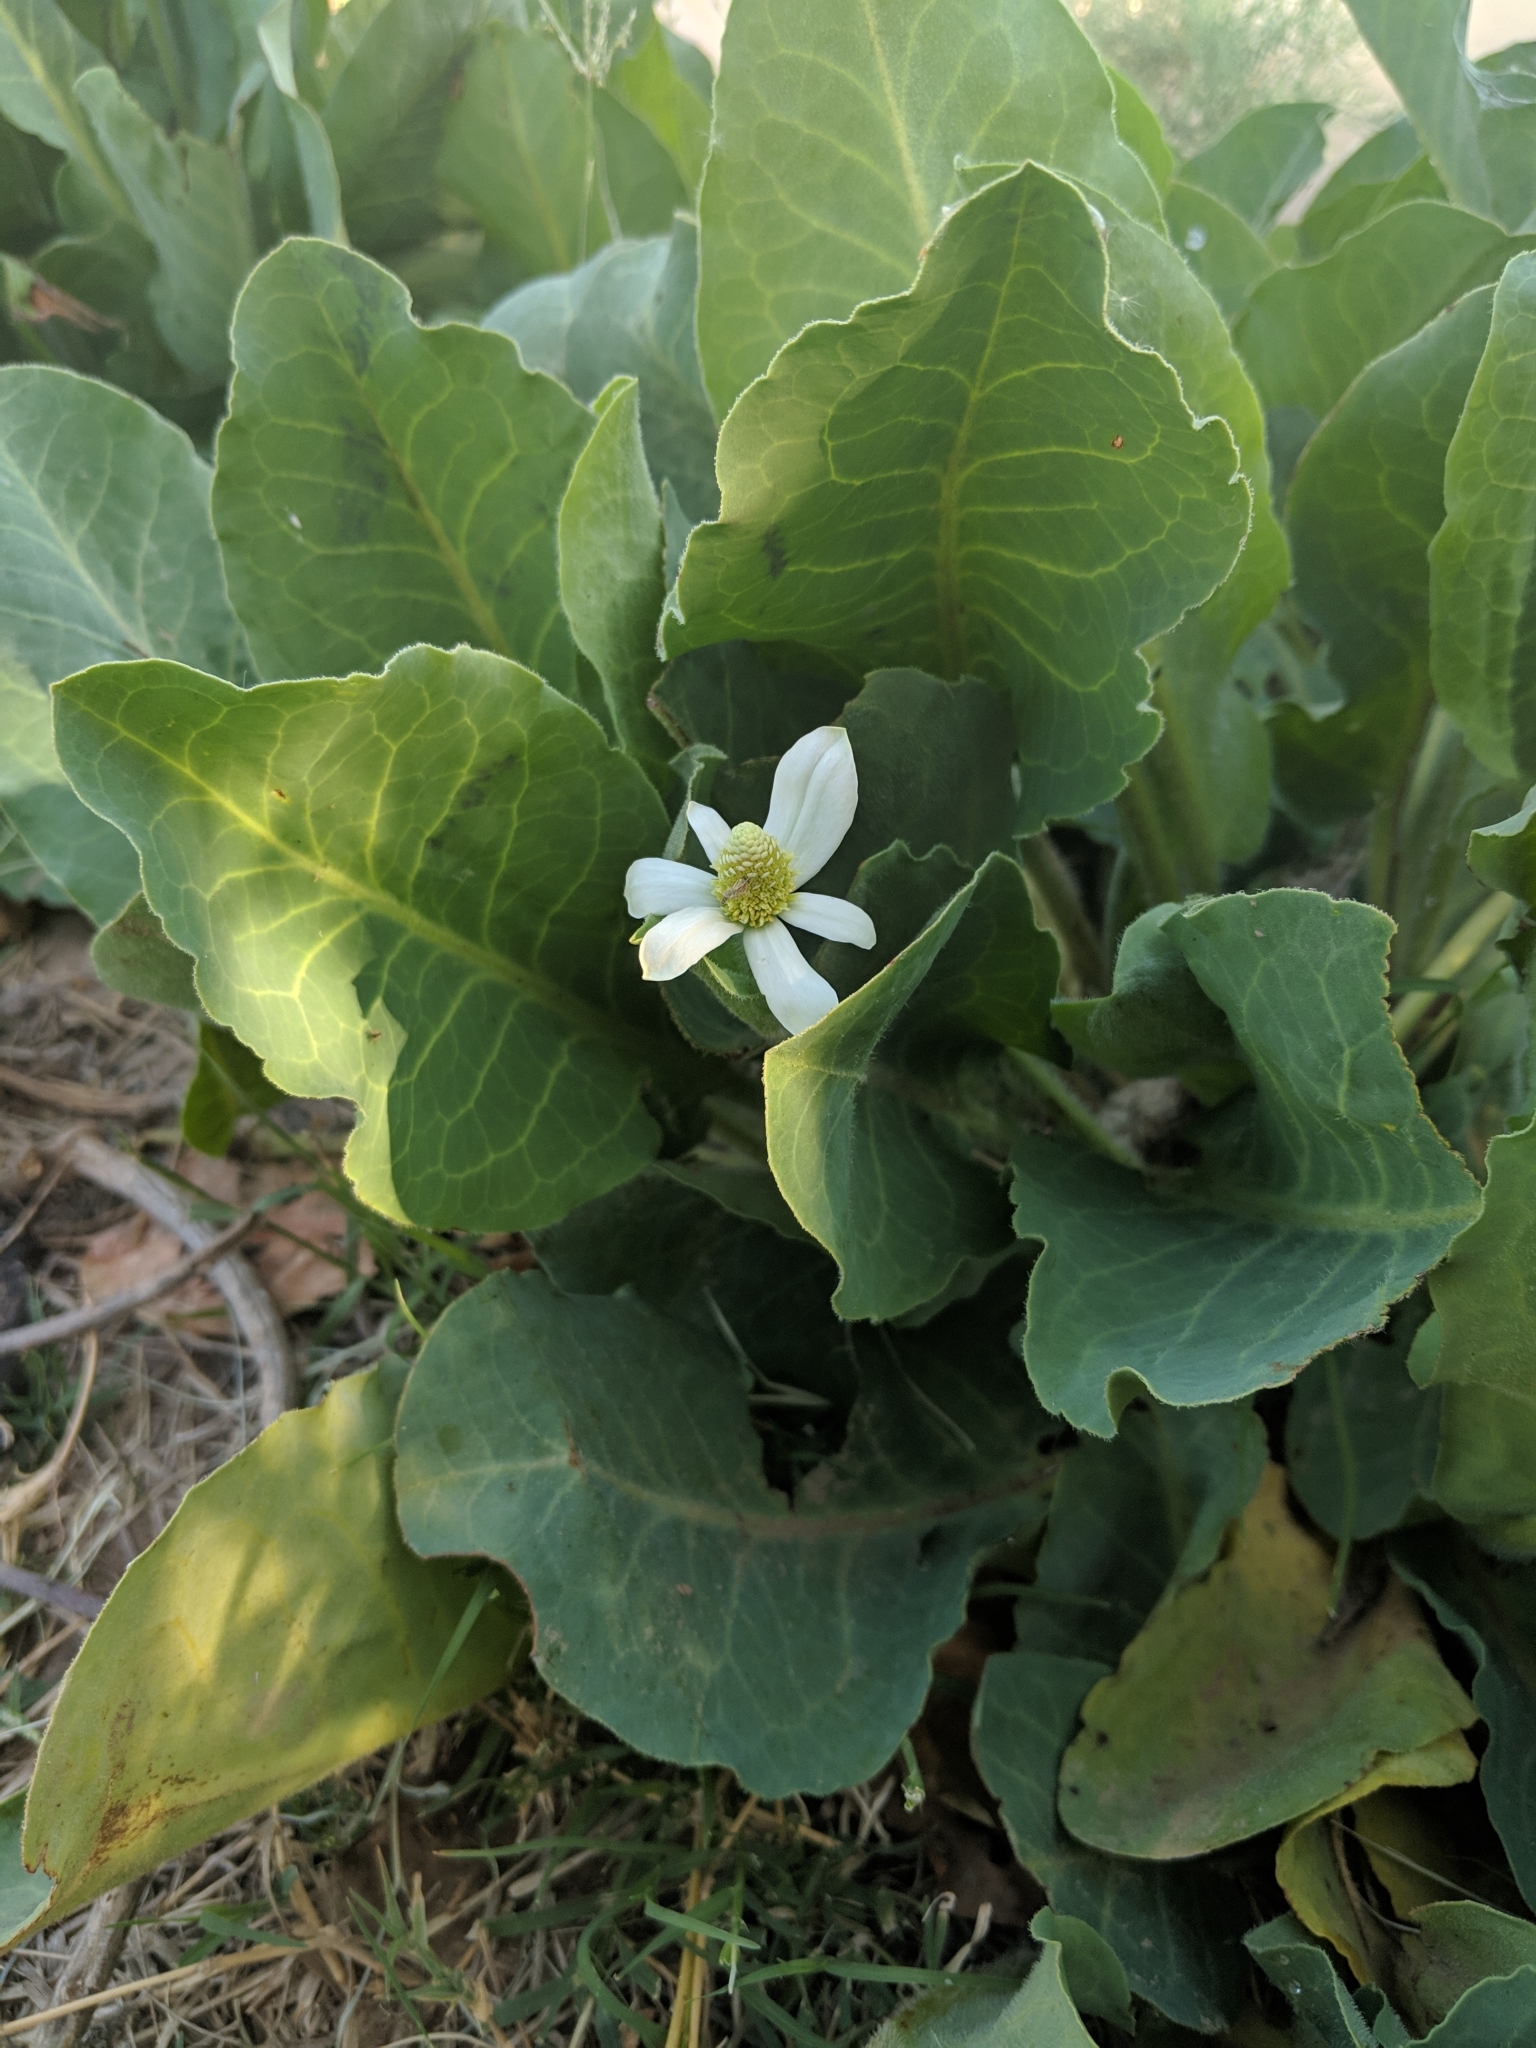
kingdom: Plantae
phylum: Tracheophyta
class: Magnoliopsida
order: Piperales
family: Saururaceae
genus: Anemopsis
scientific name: Anemopsis californica
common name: Apache-beads
